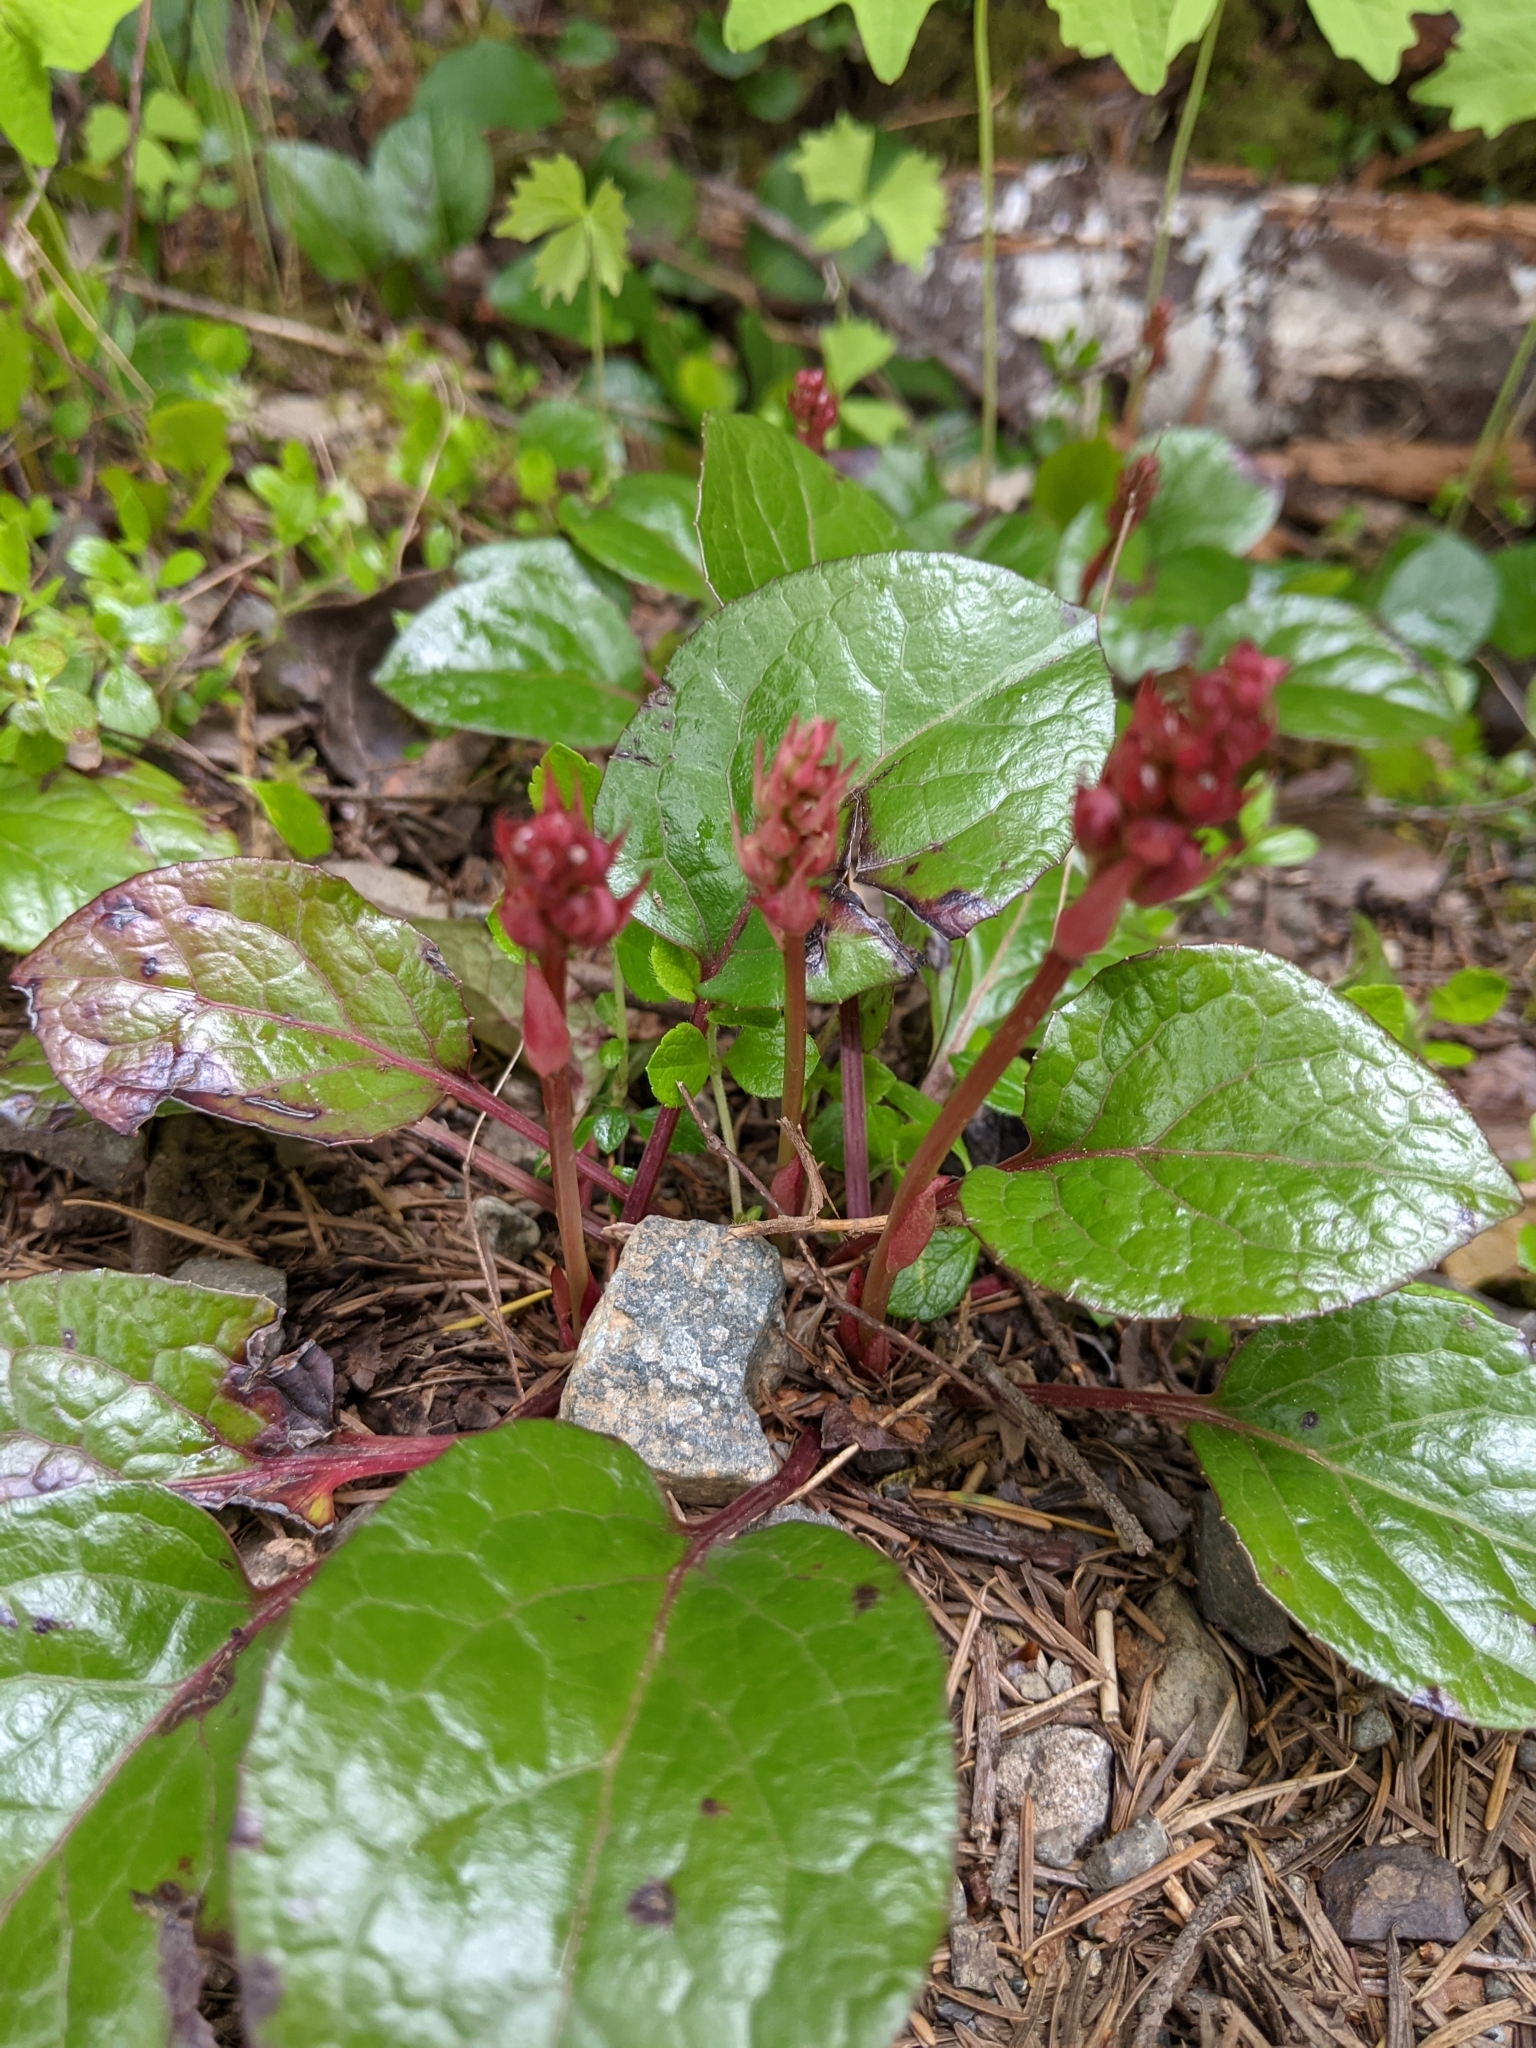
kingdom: Plantae
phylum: Tracheophyta
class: Magnoliopsida
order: Ericales
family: Ericaceae
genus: Pyrola
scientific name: Pyrola asarifolia
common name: Bog wintergreen
